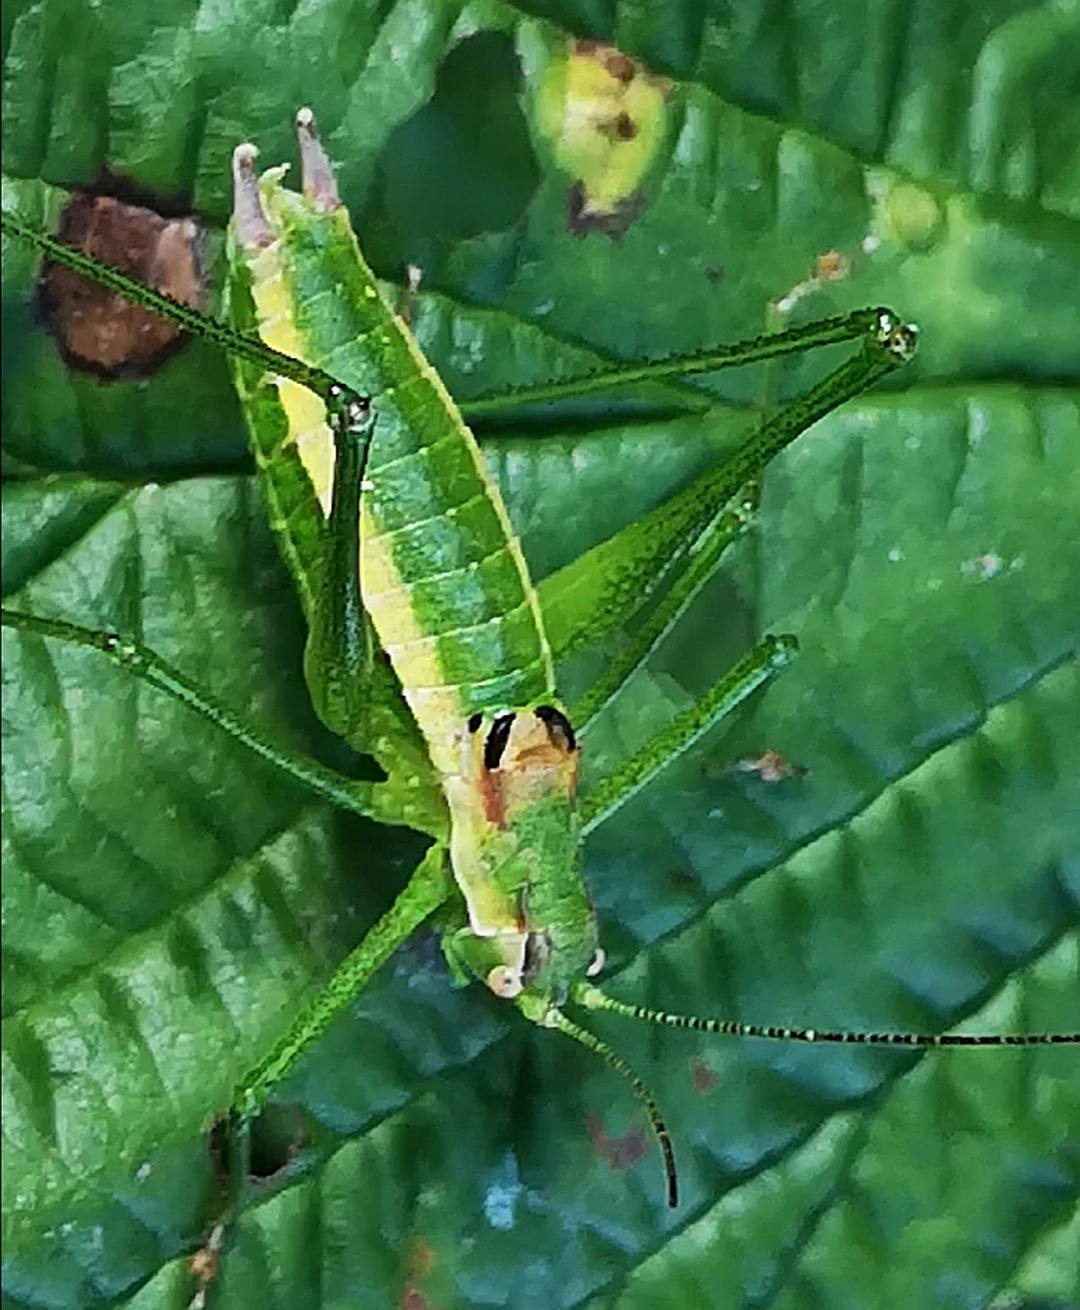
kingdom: Animalia
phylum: Arthropoda
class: Insecta
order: Orthoptera
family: Tettigoniidae
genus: Leptophyes
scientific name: Leptophyes boscii
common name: Balkan speckled bush-cricket
